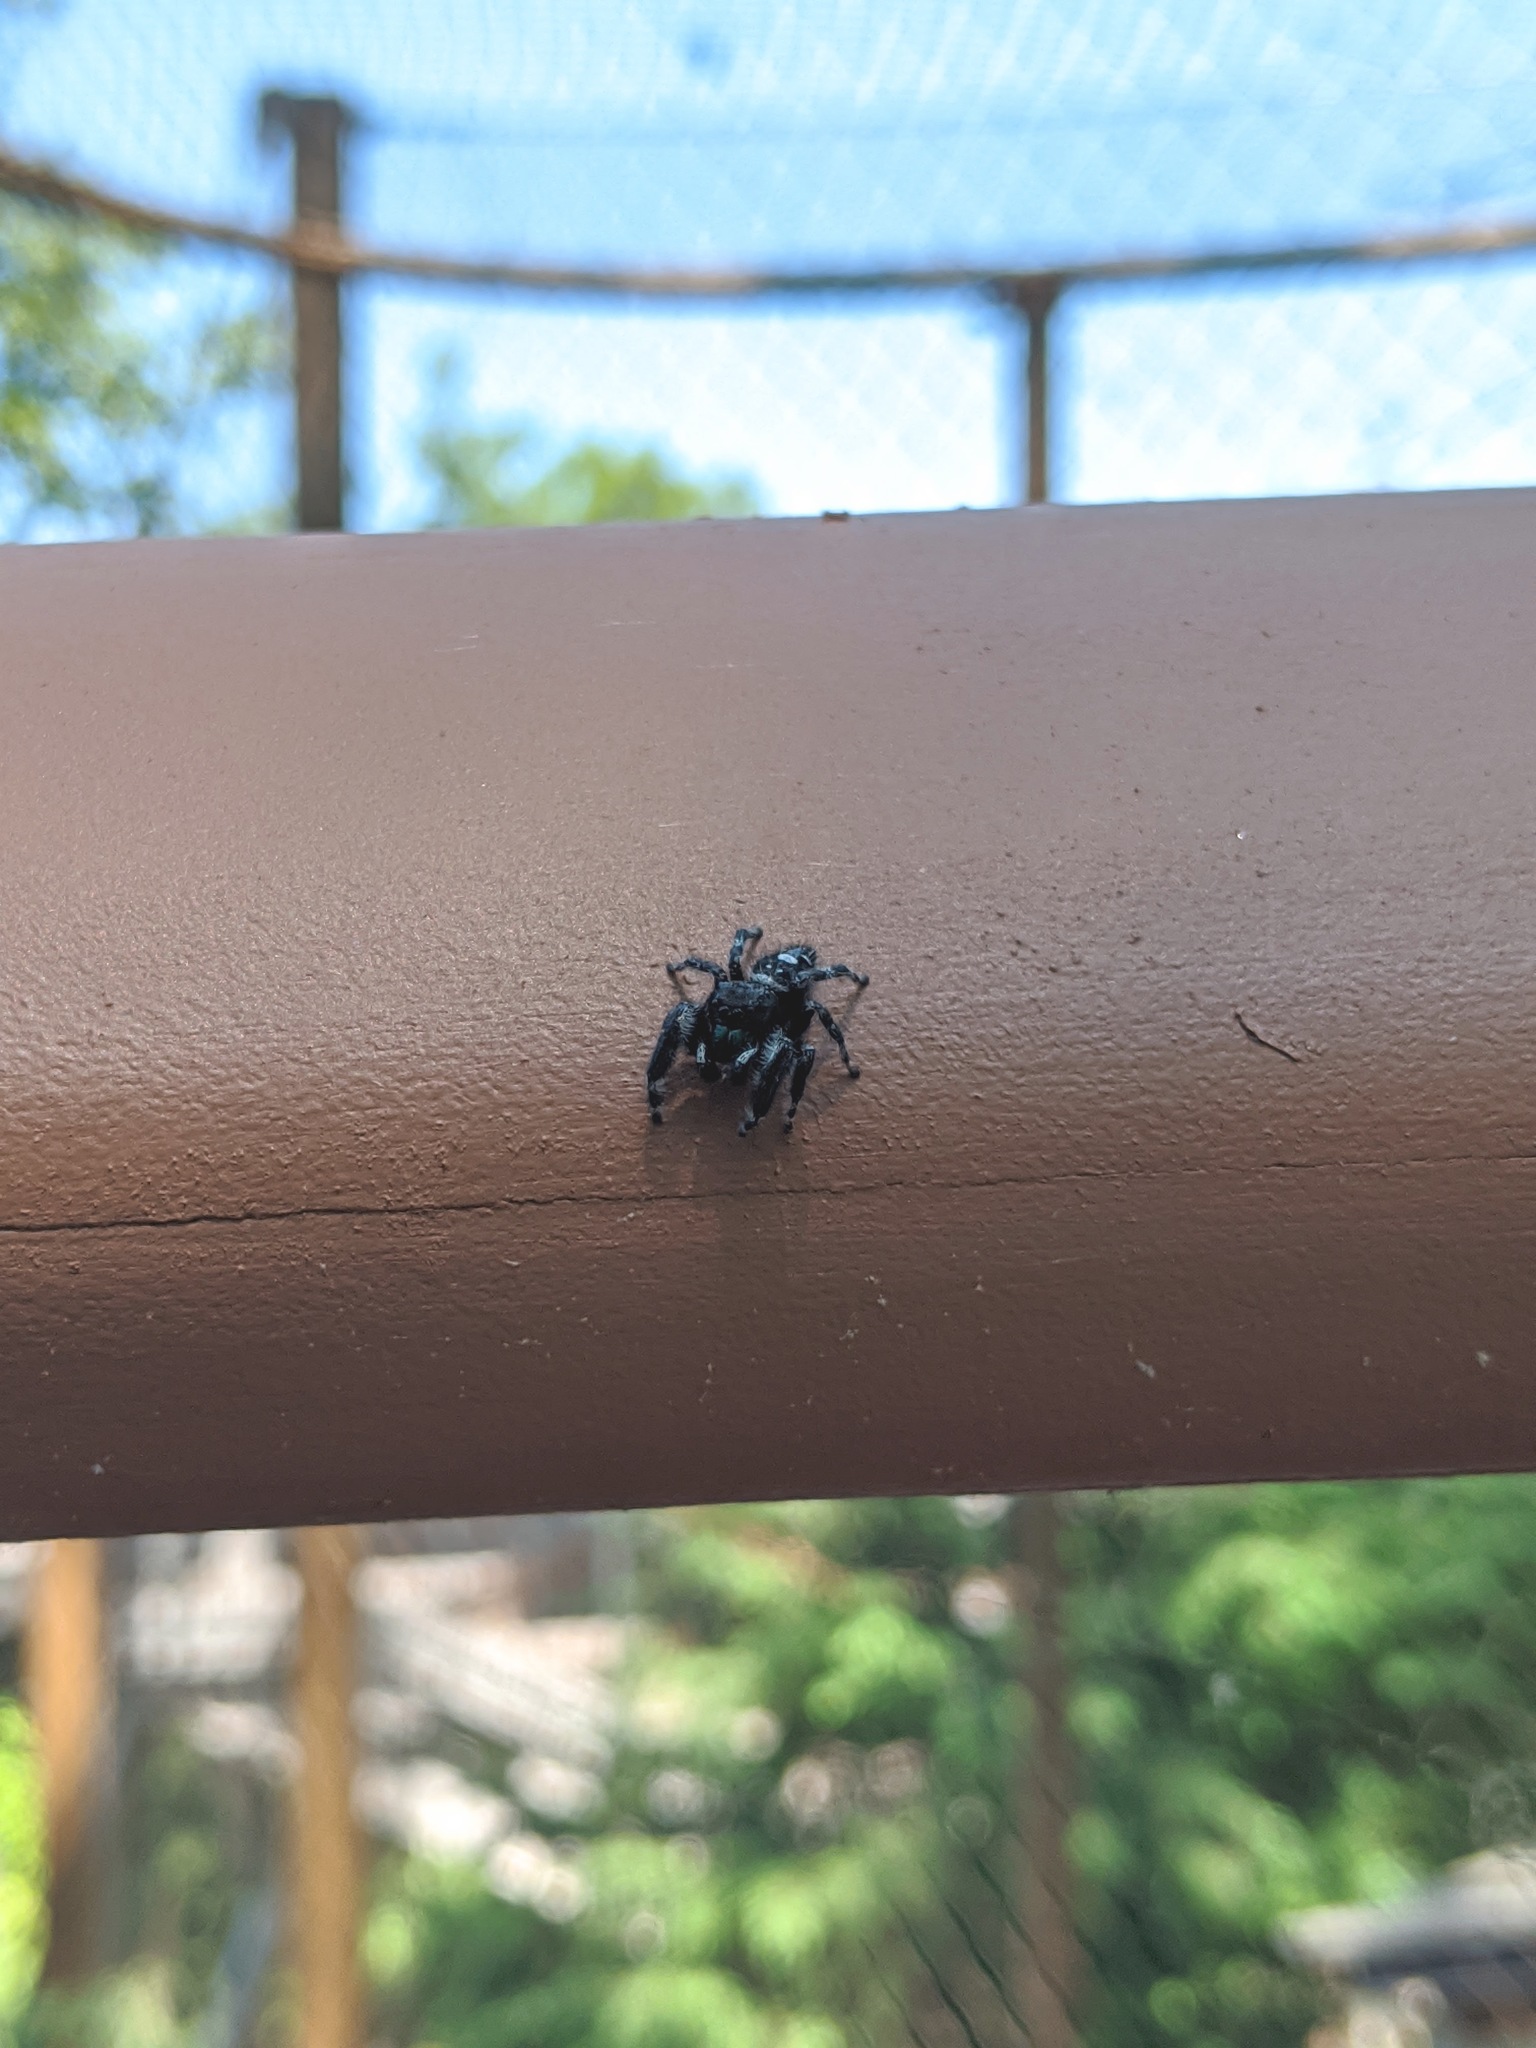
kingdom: Animalia
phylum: Arthropoda
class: Arachnida
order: Araneae
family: Salticidae
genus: Phidippus
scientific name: Phidippus audax
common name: Bold jumper
